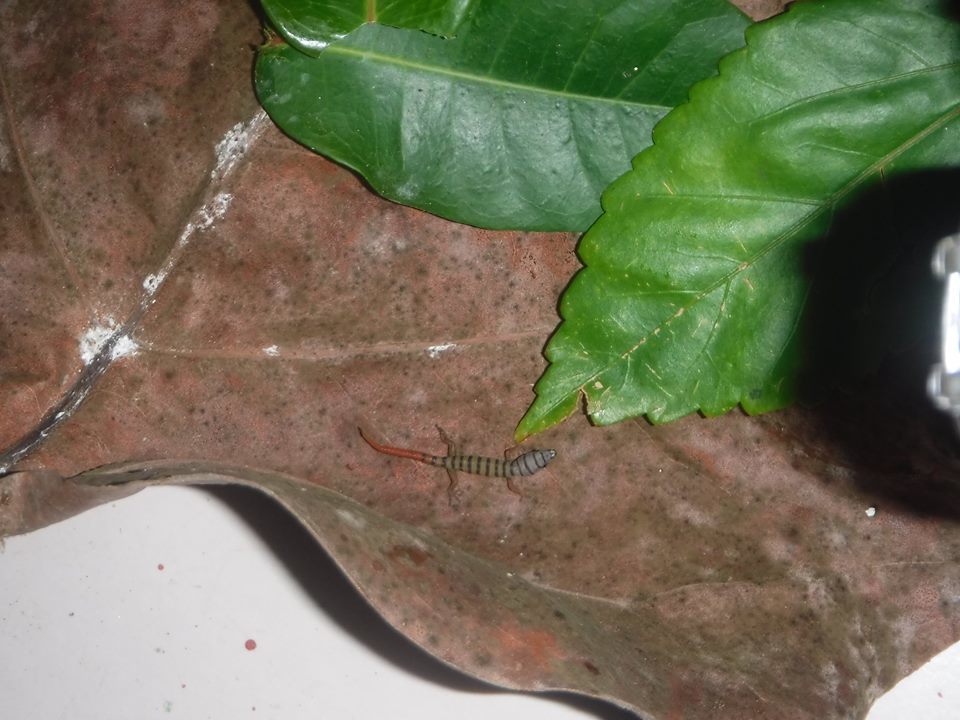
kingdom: Animalia
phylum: Chordata
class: Squamata
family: Sphaerodactylidae
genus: Sphaerodactylus
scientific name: Sphaerodactylus elegans
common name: Ashy gecko
